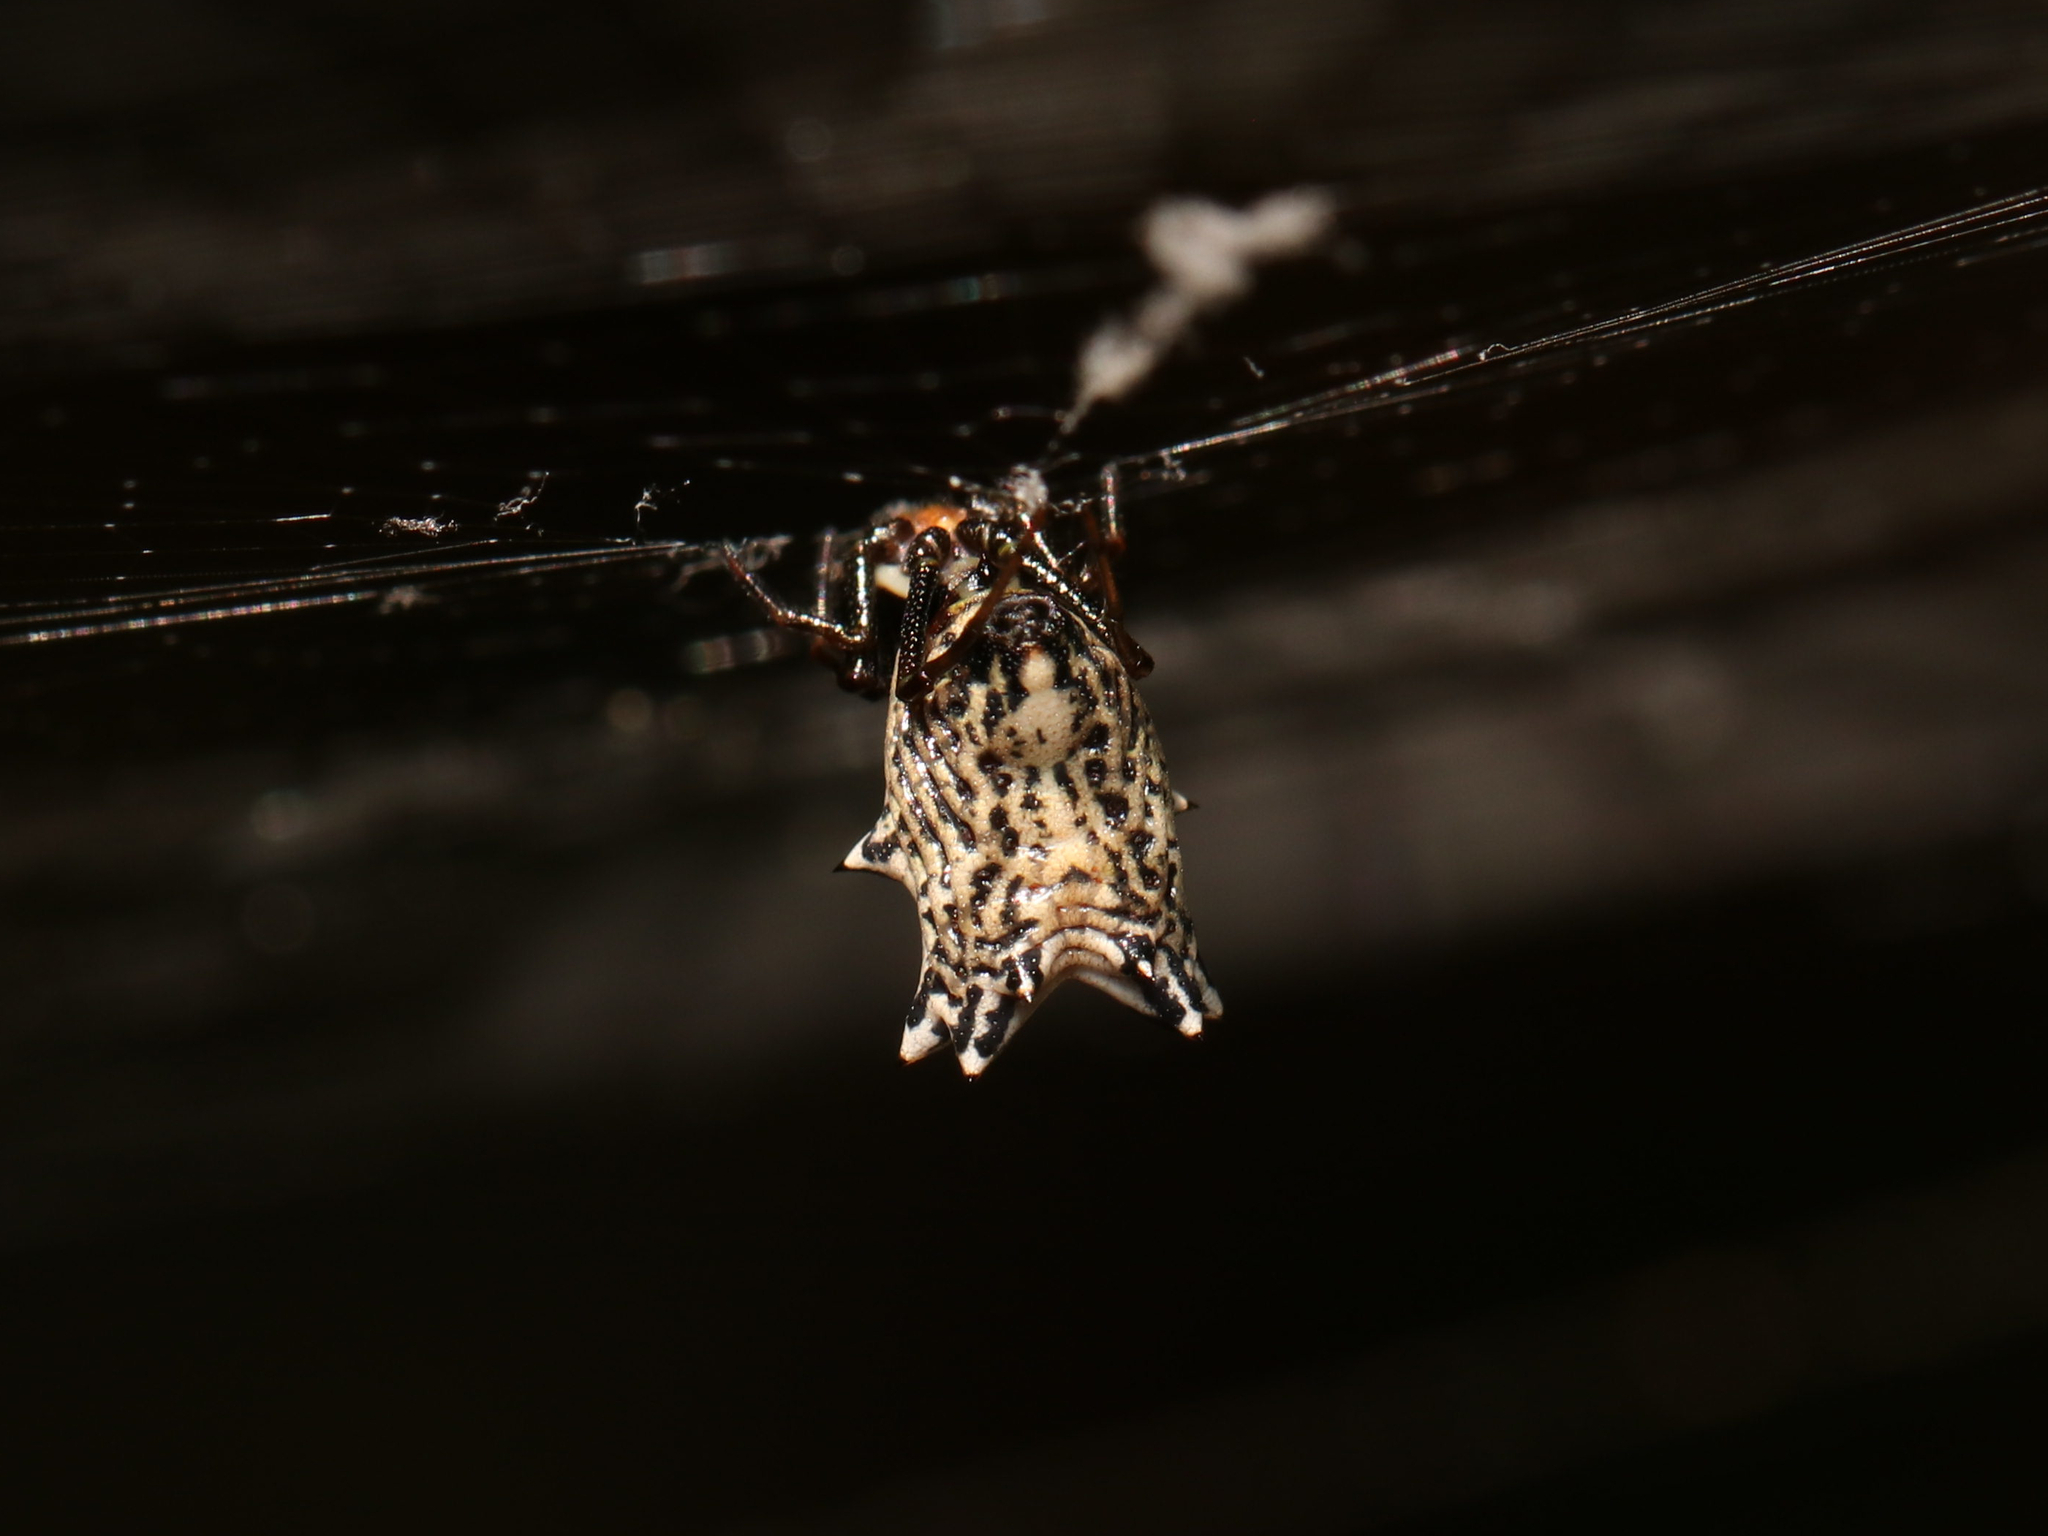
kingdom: Animalia
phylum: Arthropoda
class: Arachnida
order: Araneae
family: Araneidae
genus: Micrathena
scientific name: Micrathena gracilis
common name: Orb weavers
